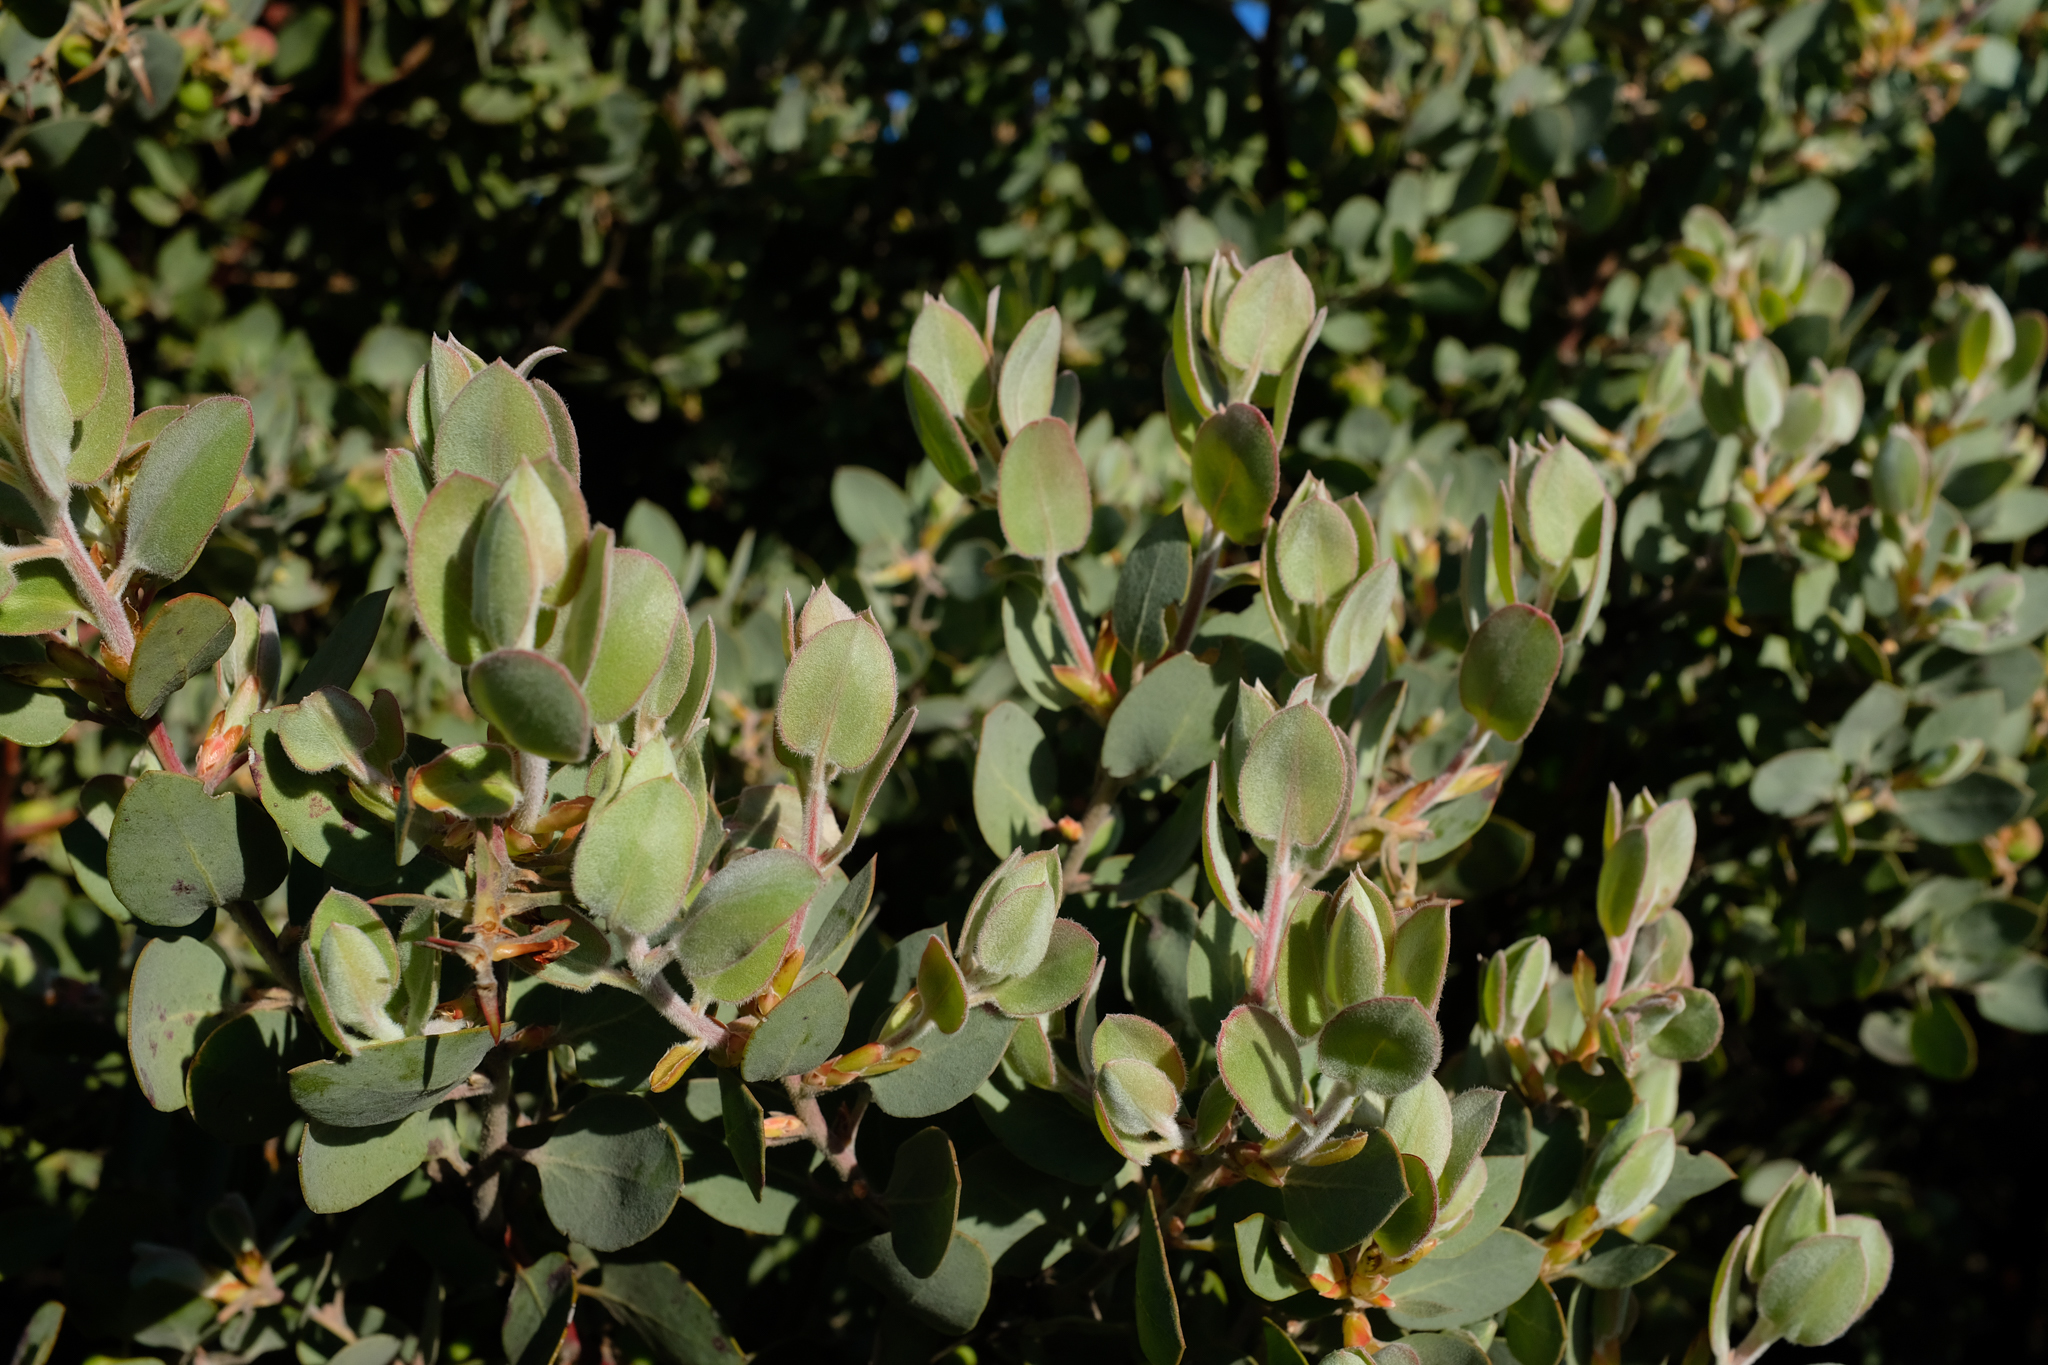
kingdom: Plantae
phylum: Tracheophyta
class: Magnoliopsida
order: Ericales
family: Ericaceae
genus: Arctostaphylos
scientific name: Arctostaphylos obispoensis
